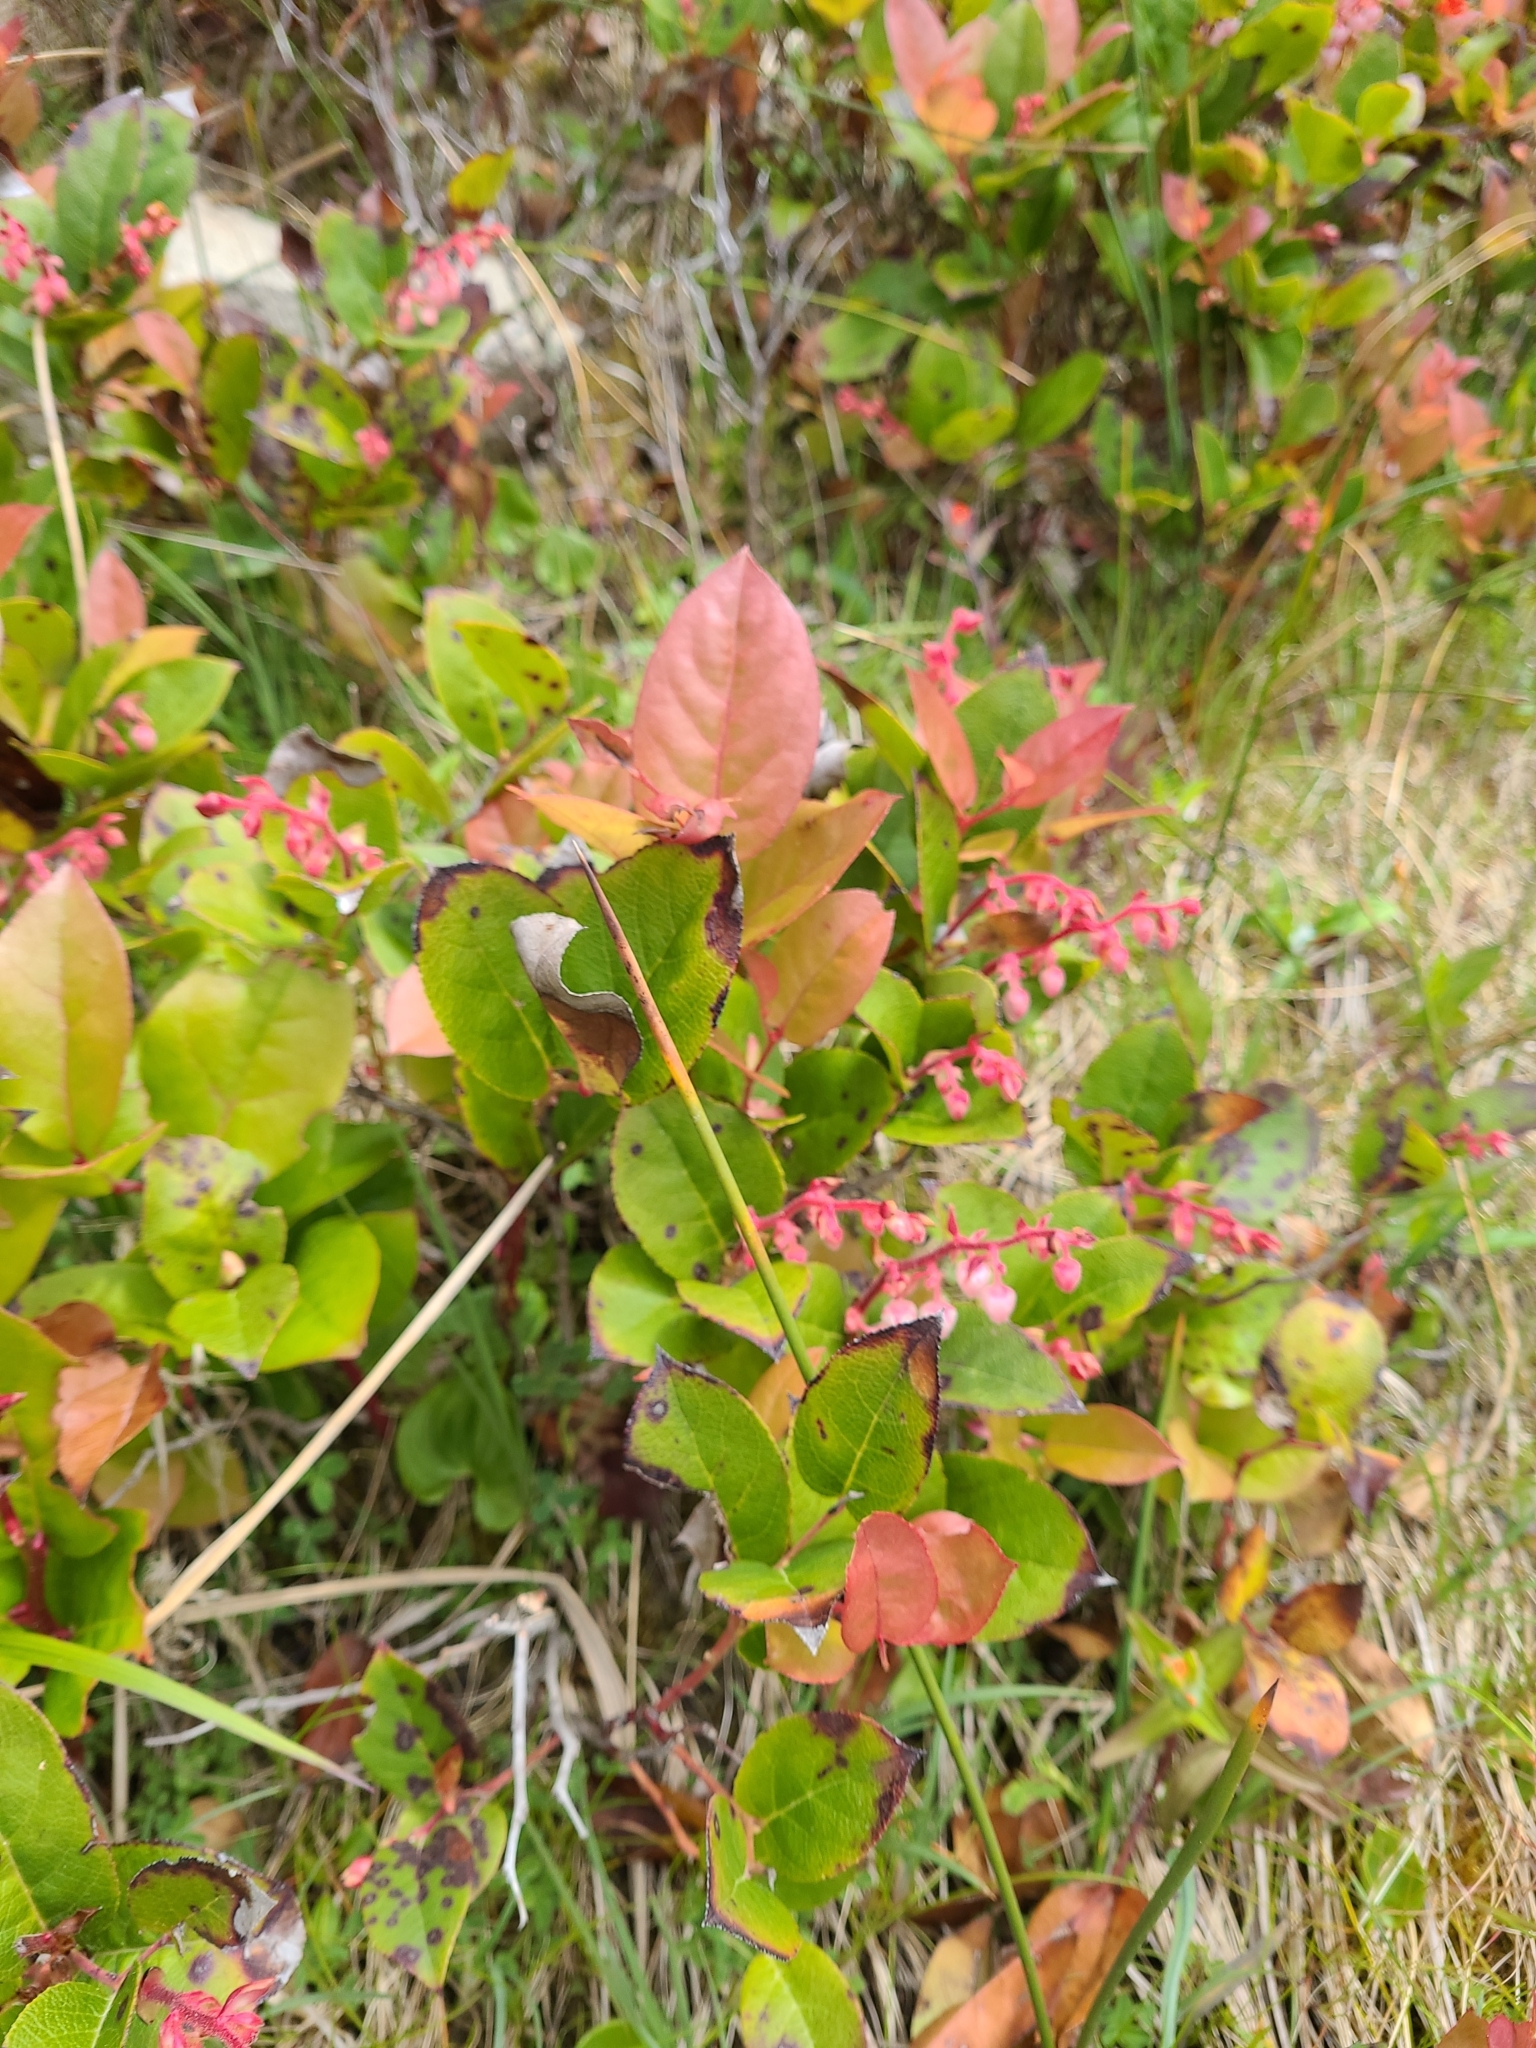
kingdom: Plantae
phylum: Tracheophyta
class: Magnoliopsida
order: Ericales
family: Ericaceae
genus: Gaultheria
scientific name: Gaultheria shallon
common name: Shallon
